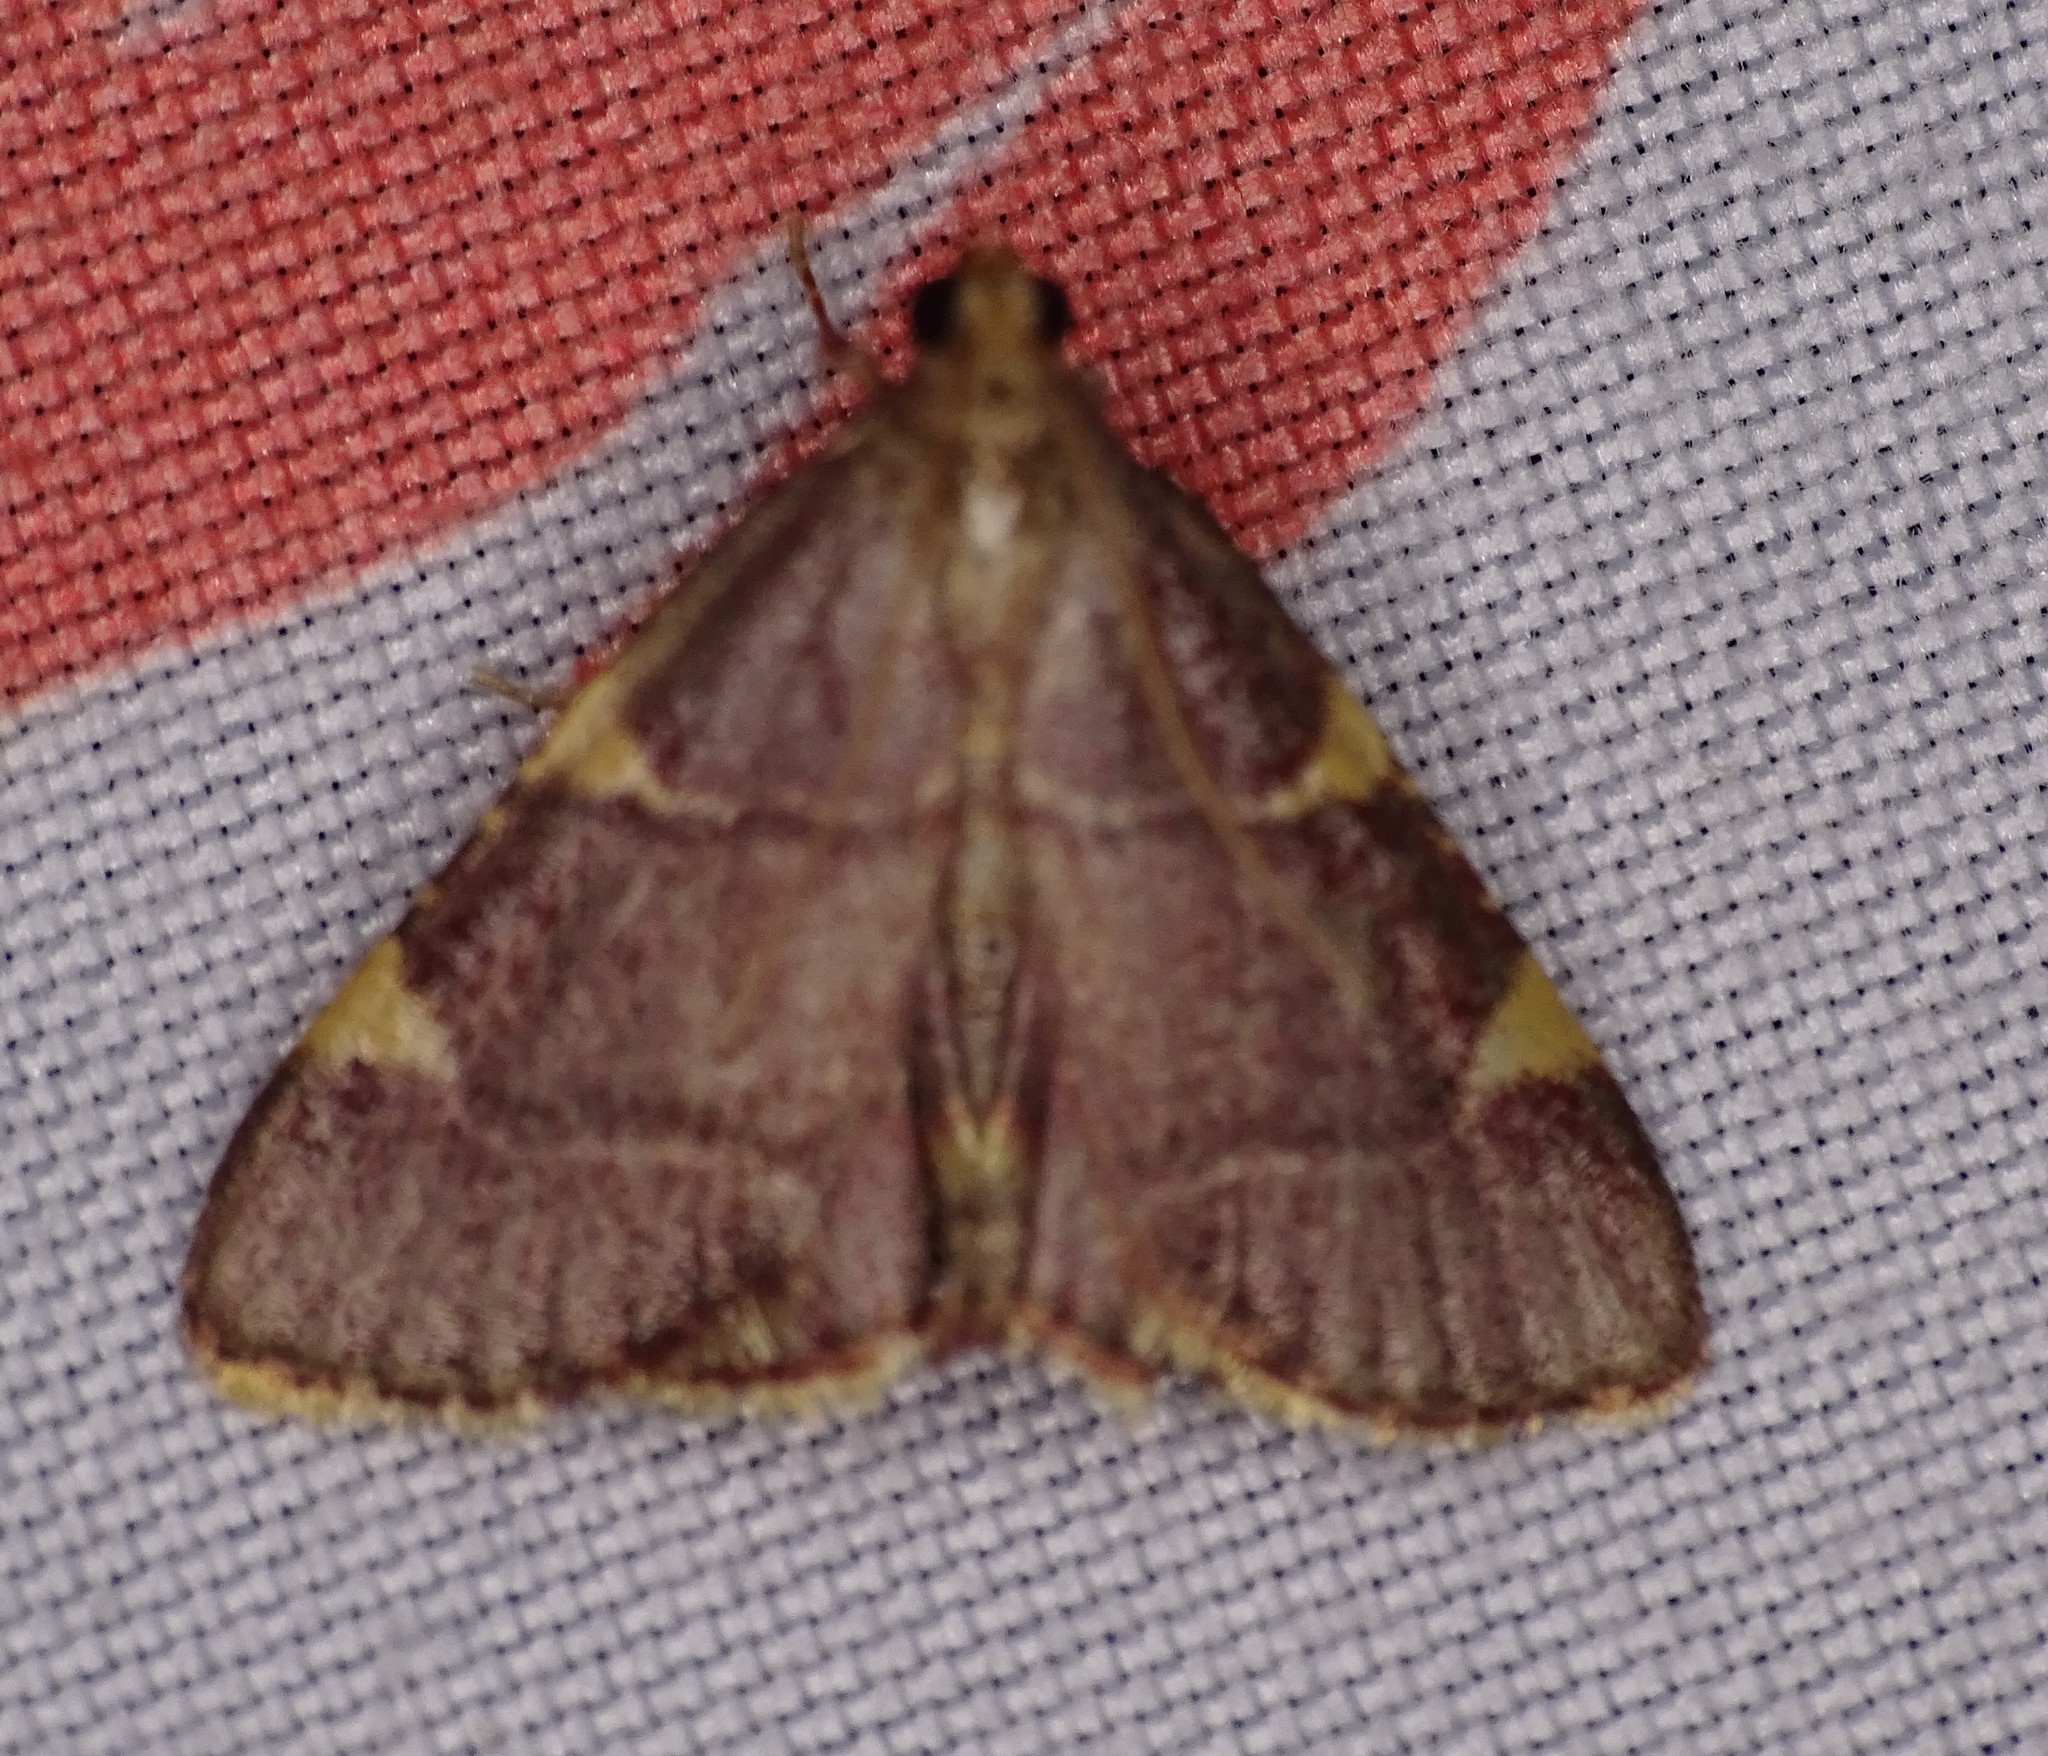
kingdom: Animalia
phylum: Arthropoda
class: Insecta
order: Lepidoptera
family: Pyralidae
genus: Hypsopygia
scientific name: Hypsopygia olinalis
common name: Yellow-fringed dolichomia moth
